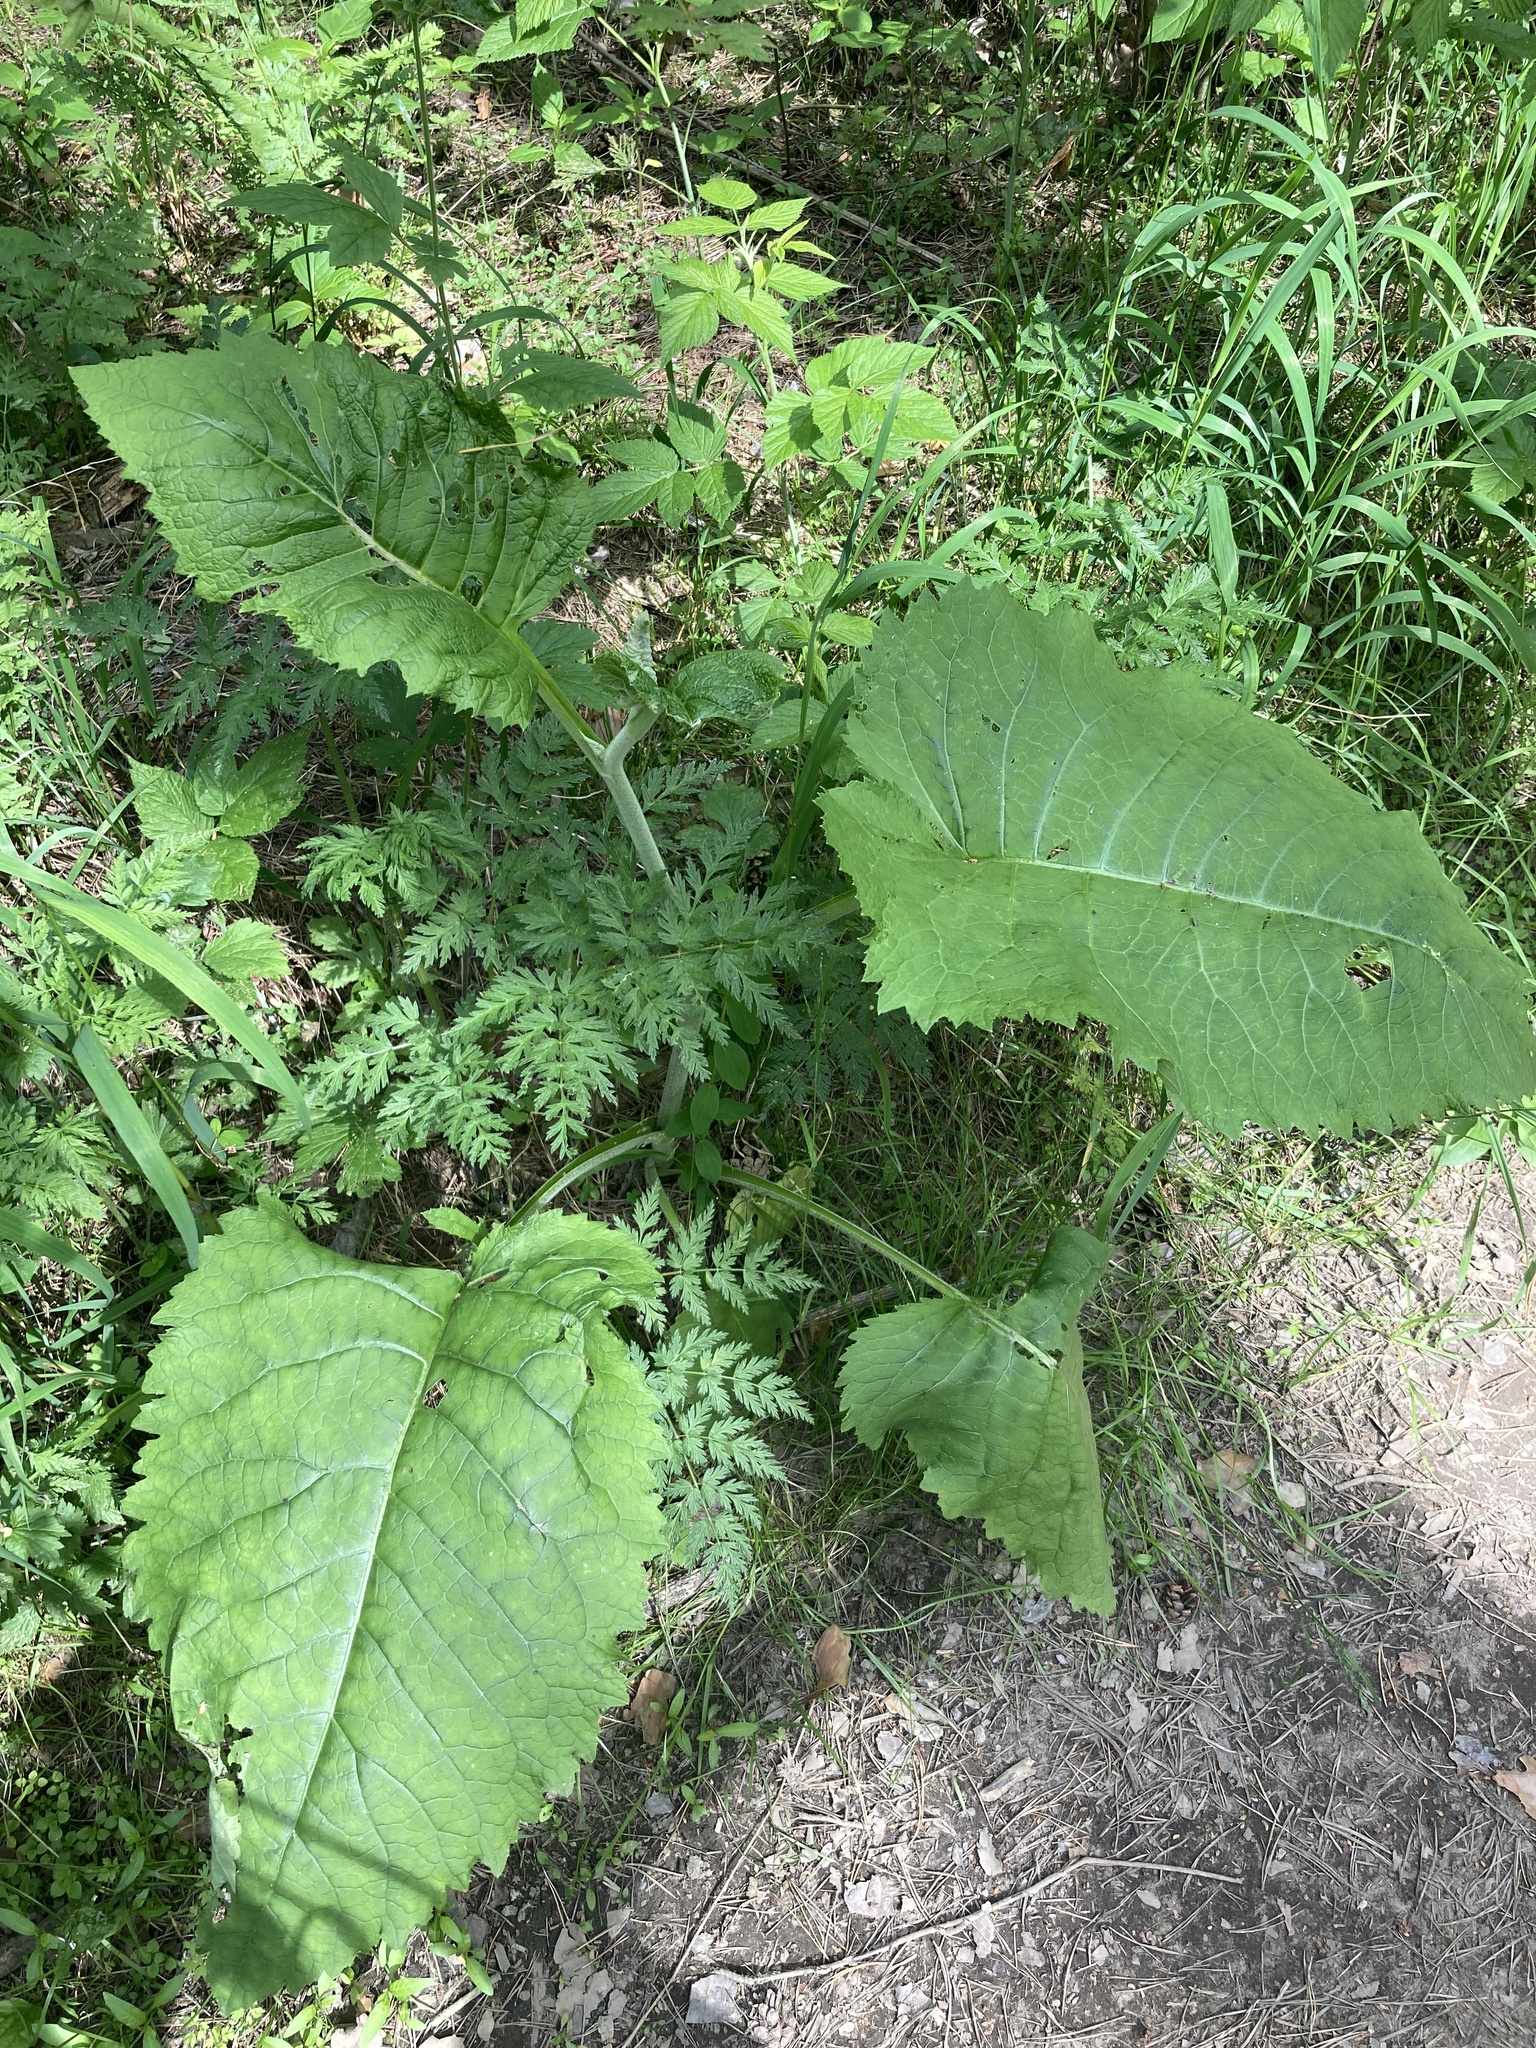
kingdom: Plantae
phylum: Tracheophyta
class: Magnoliopsida
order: Asterales
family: Asteraceae
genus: Telekia
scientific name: Telekia speciosa
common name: Yellow oxeye
